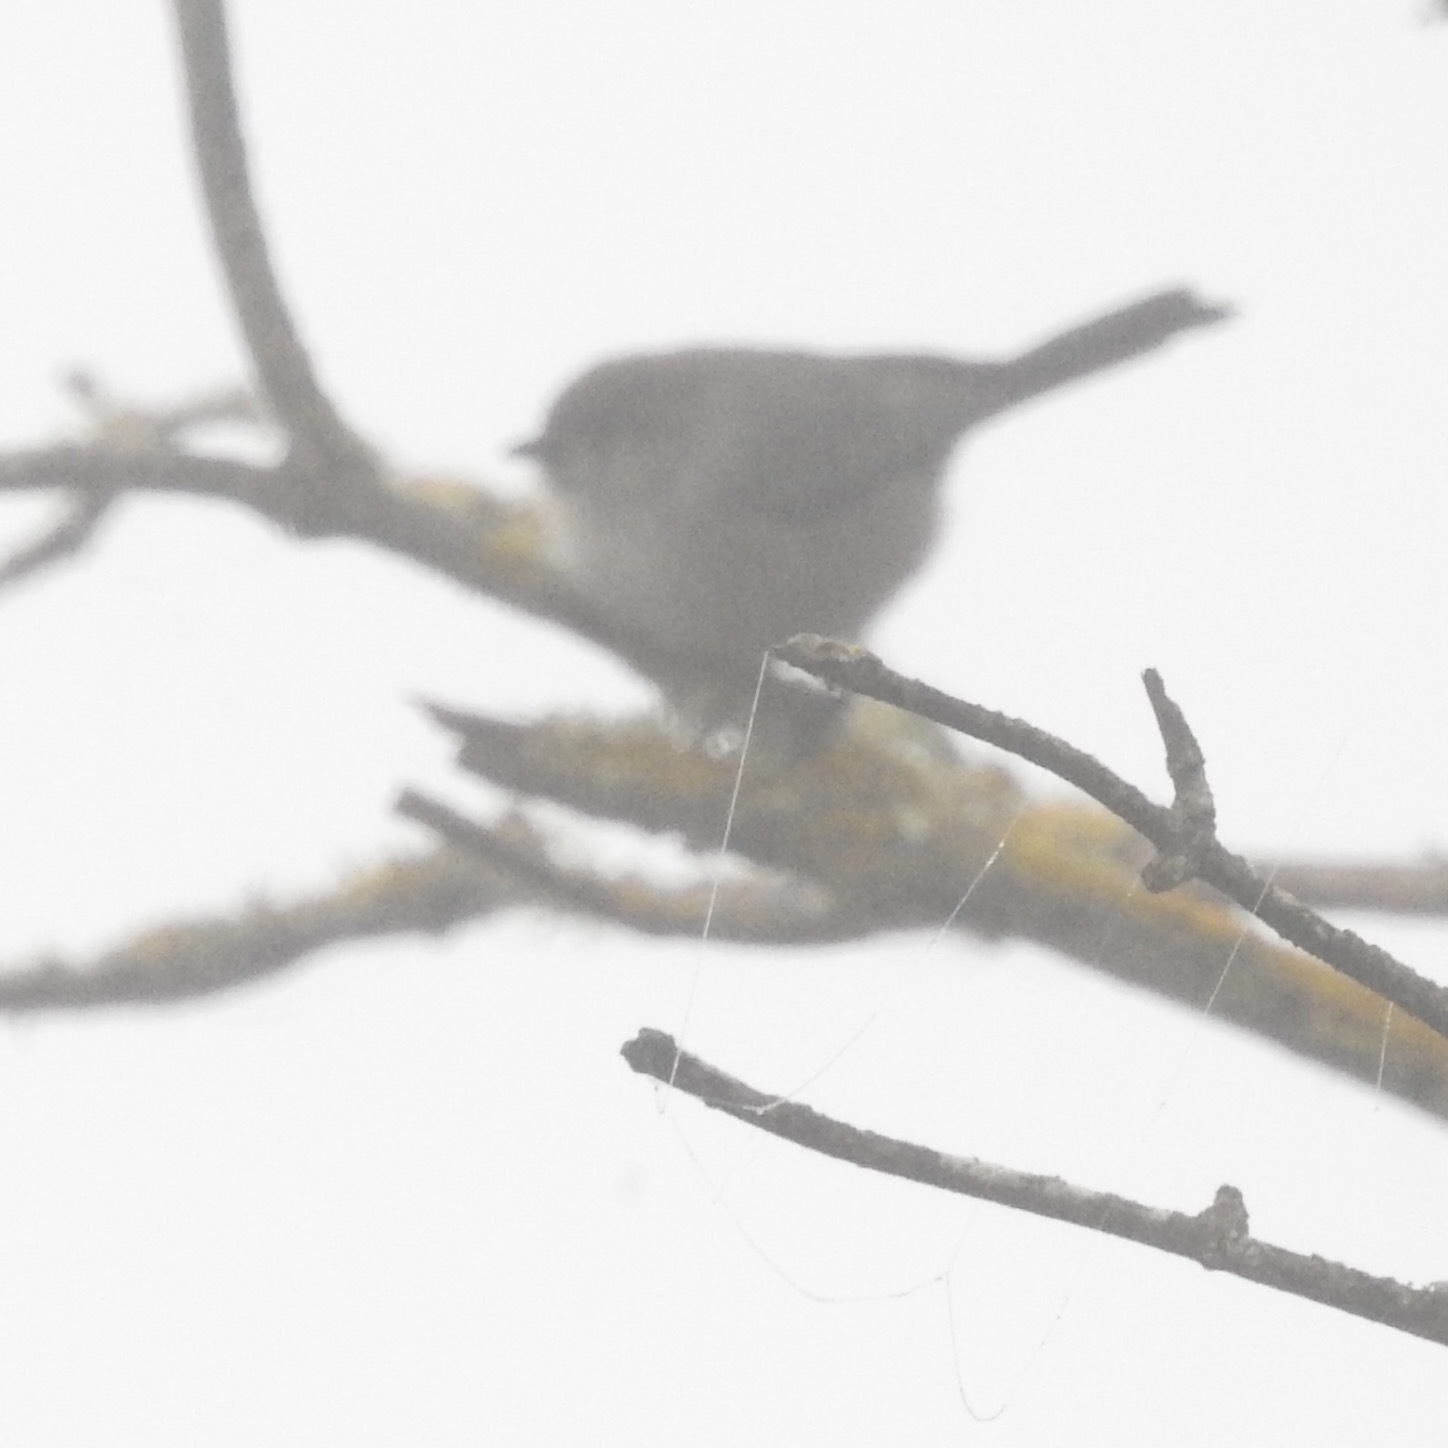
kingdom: Animalia
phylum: Chordata
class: Aves
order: Passeriformes
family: Aegithalidae
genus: Psaltriparus
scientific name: Psaltriparus minimus
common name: American bushtit
